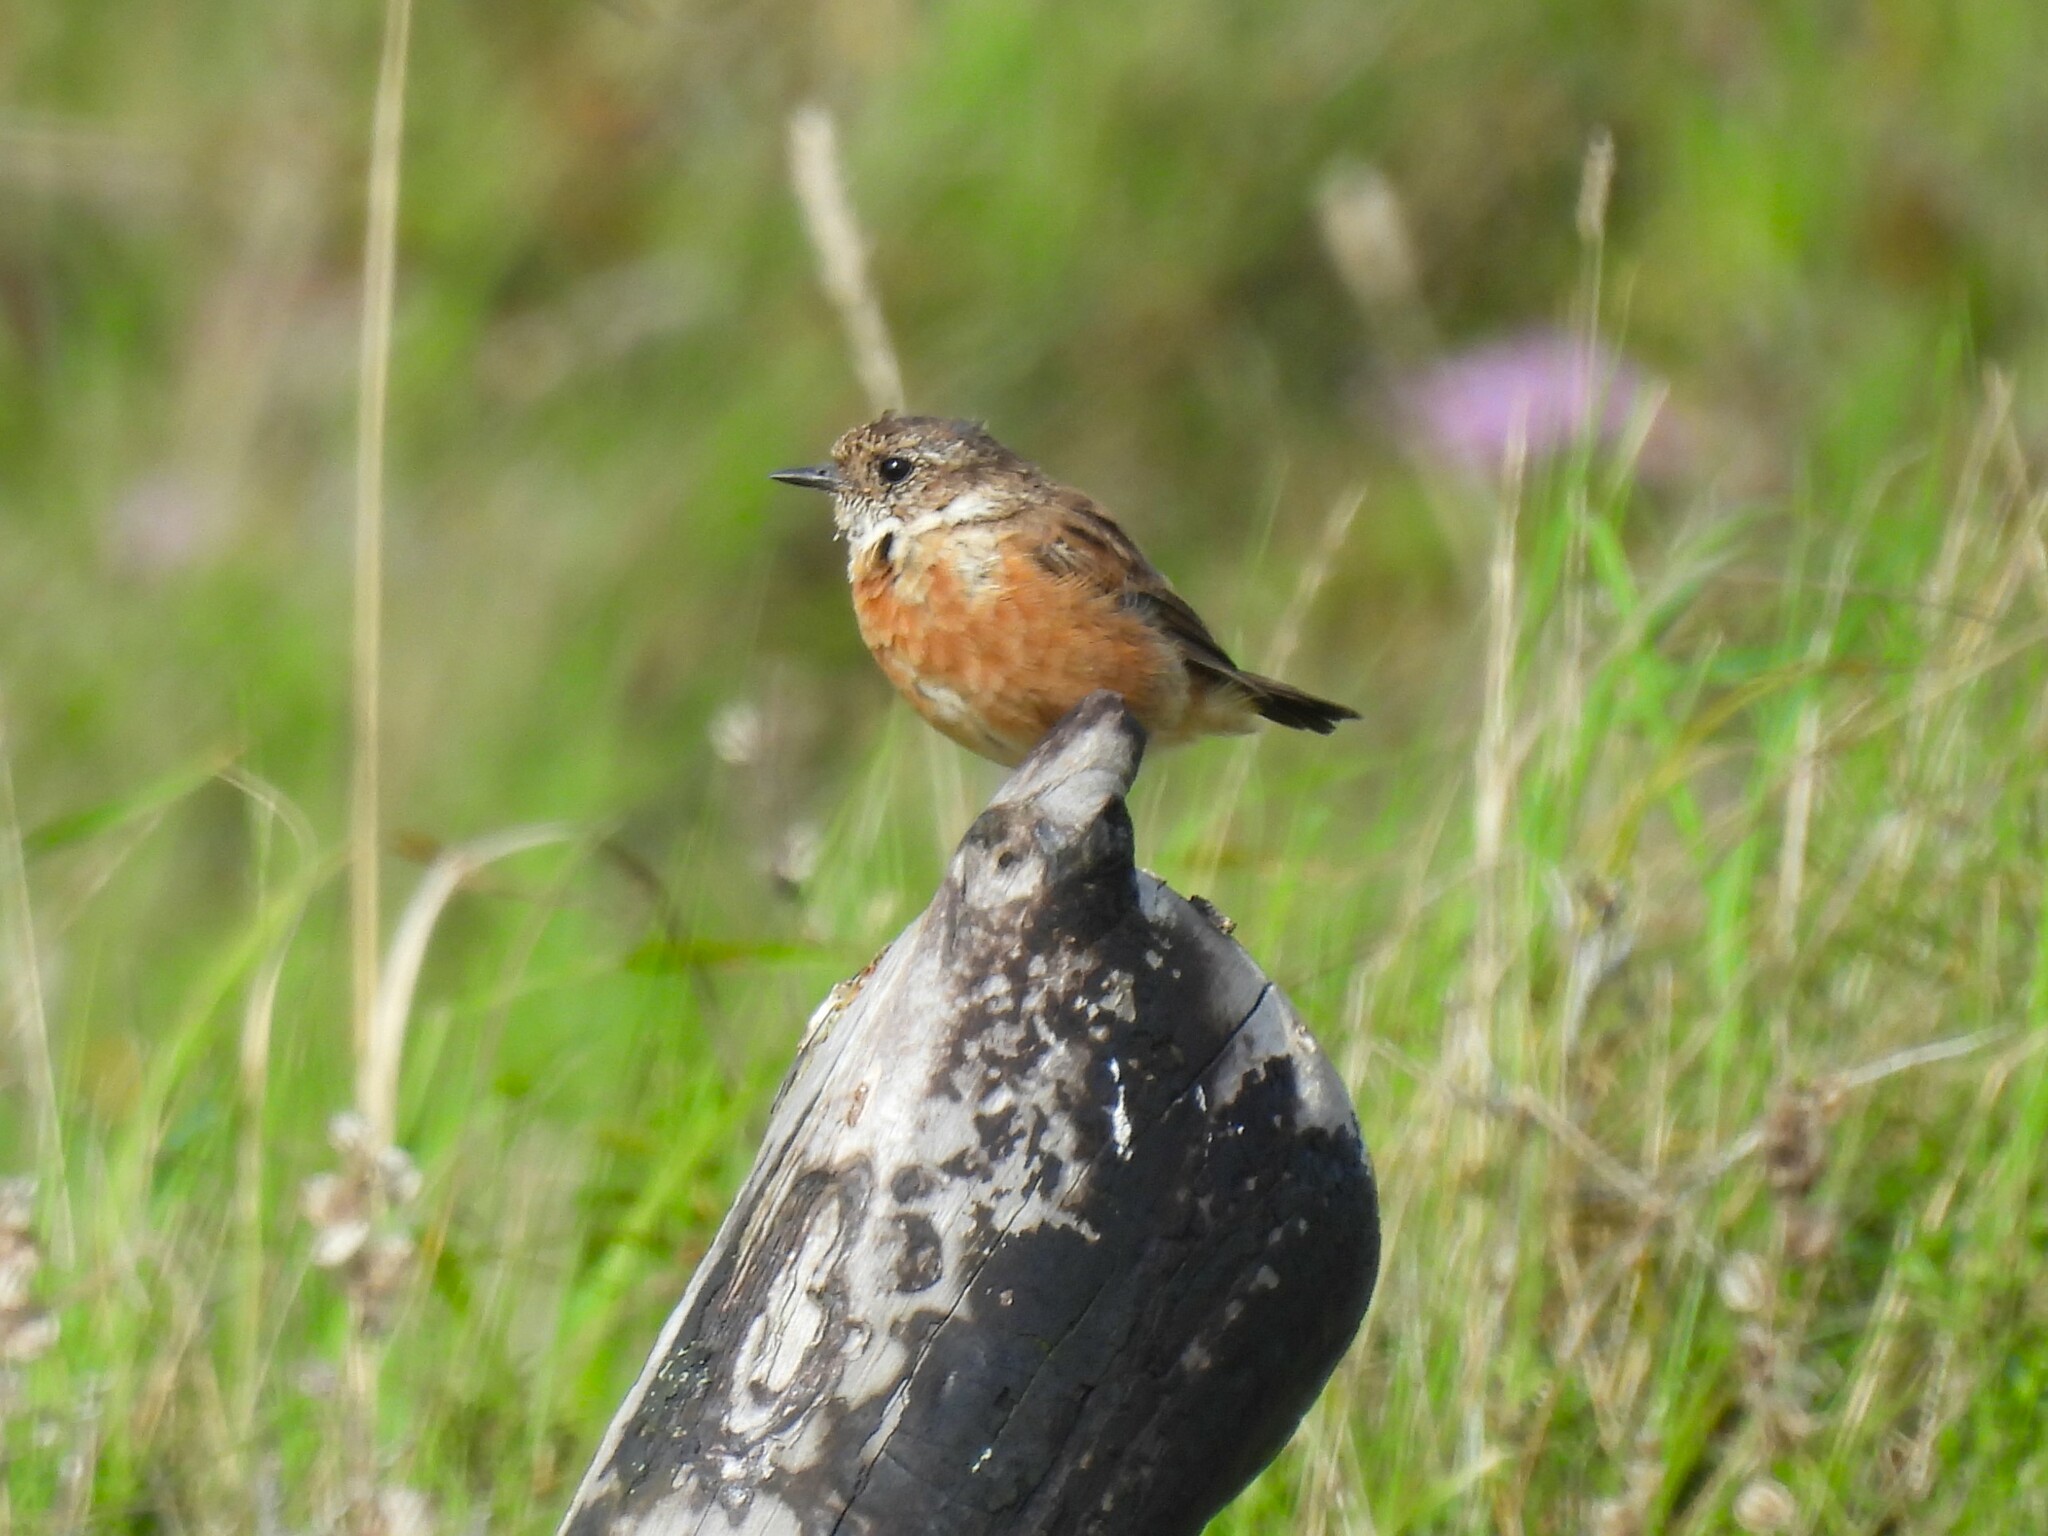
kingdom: Animalia
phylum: Chordata
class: Aves
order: Passeriformes
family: Muscicapidae
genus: Saxicola
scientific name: Saxicola rubicola
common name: European stonechat
